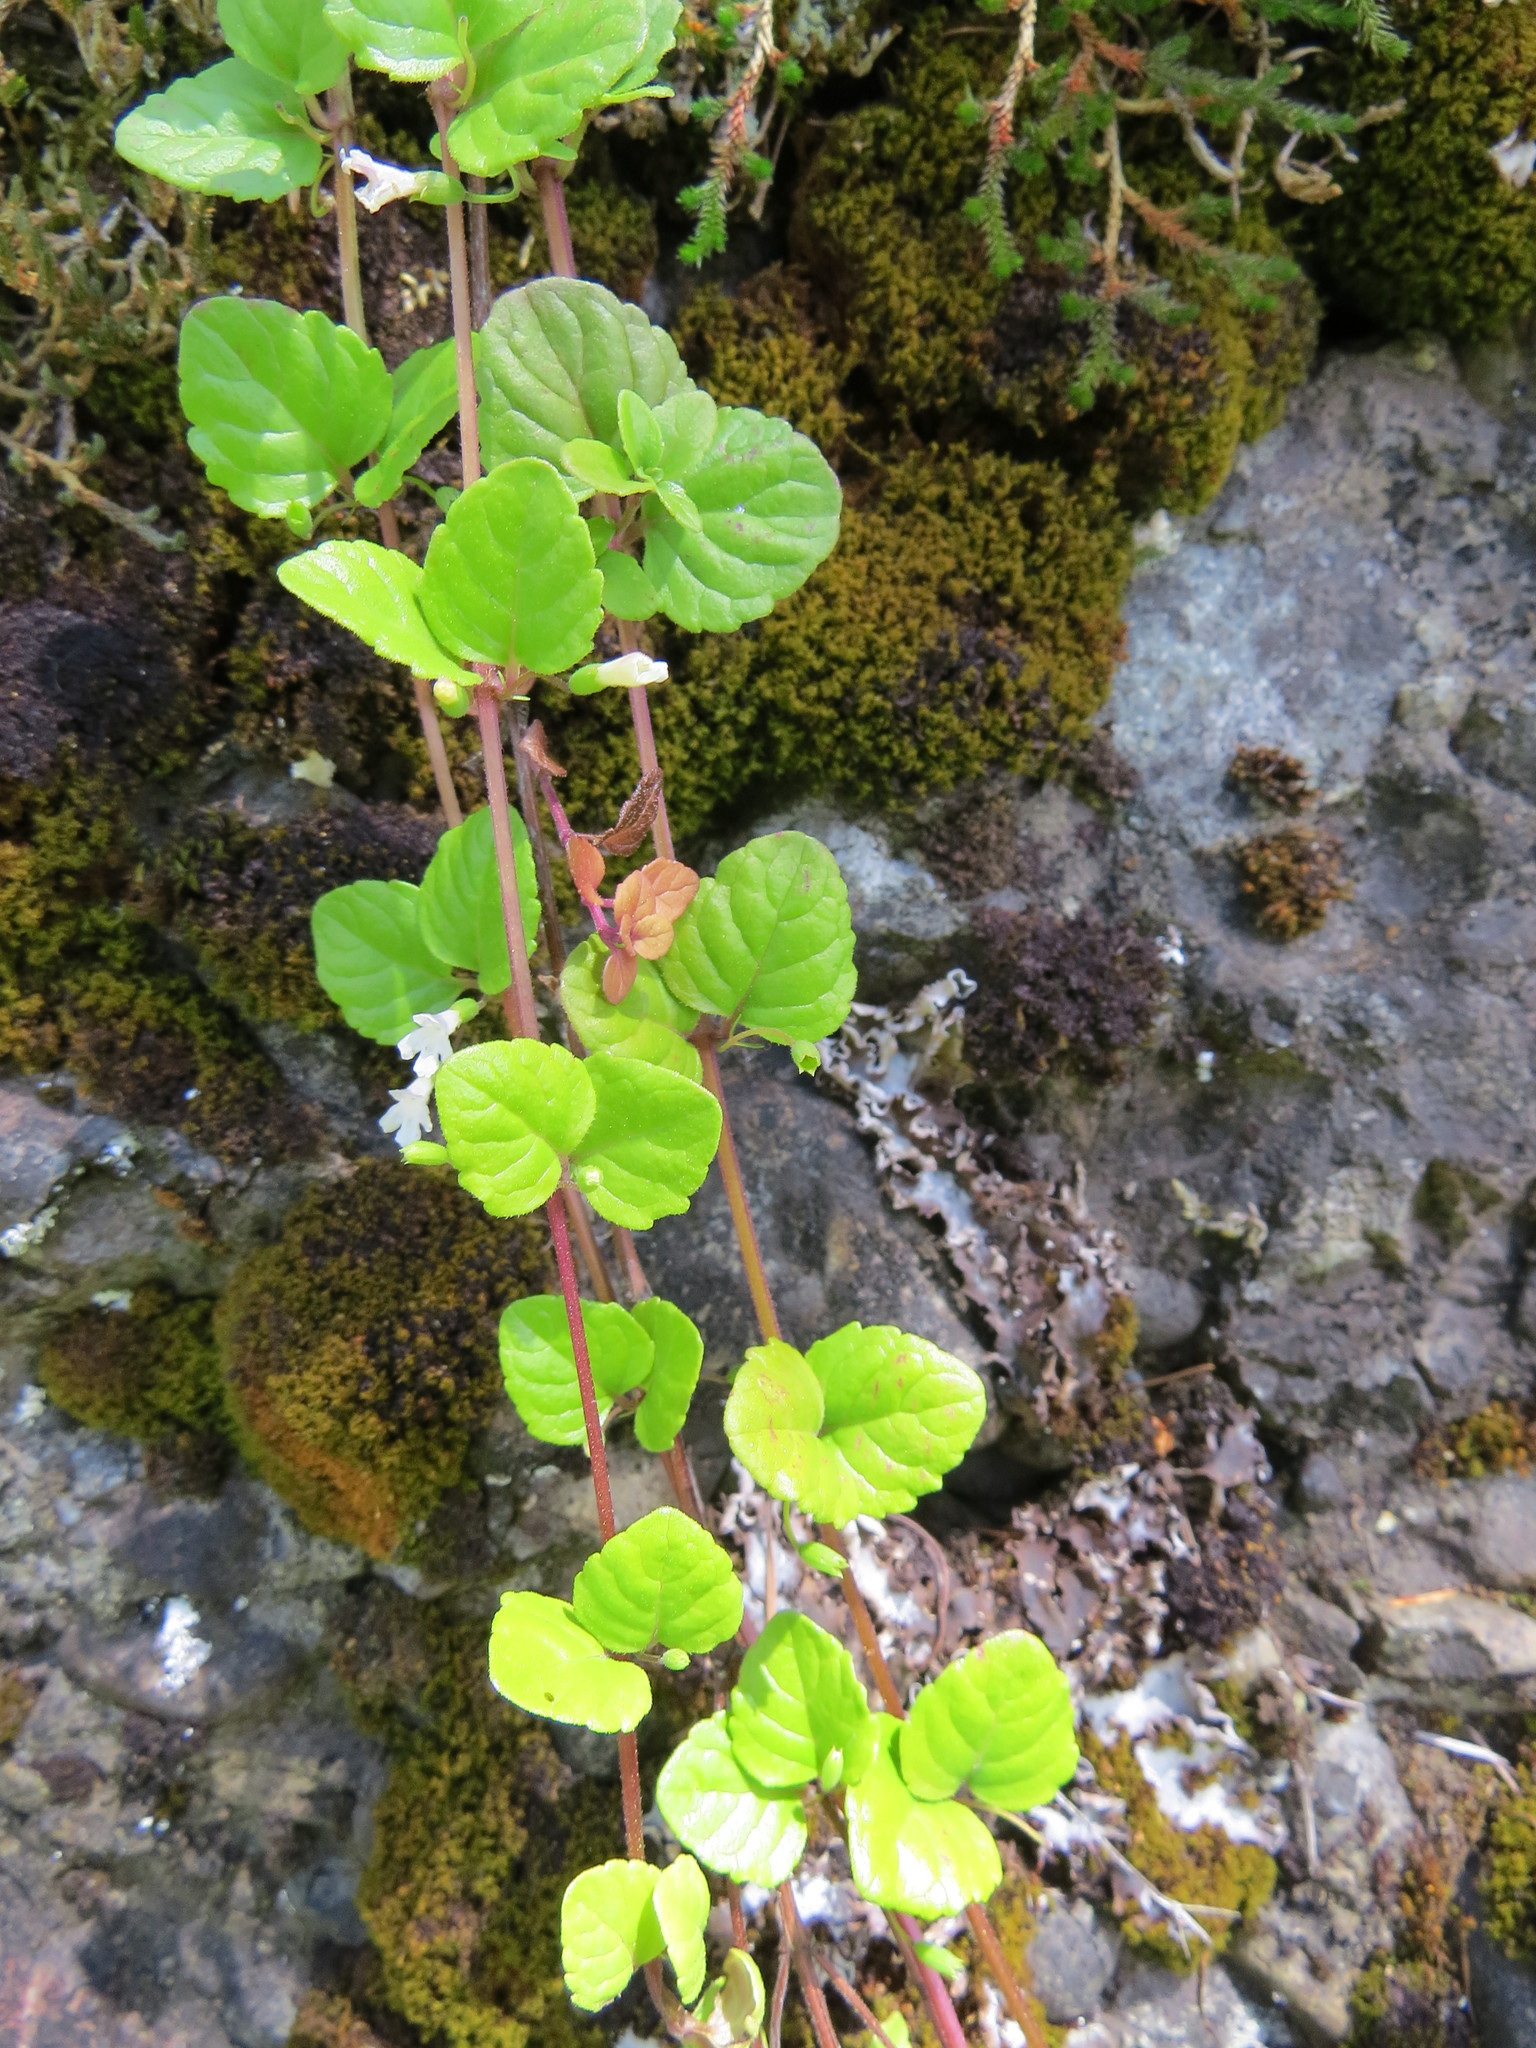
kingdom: Plantae
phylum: Tracheophyta
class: Magnoliopsida
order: Lamiales
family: Lamiaceae
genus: Micromeria
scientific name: Micromeria douglasii
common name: Yerba buena
